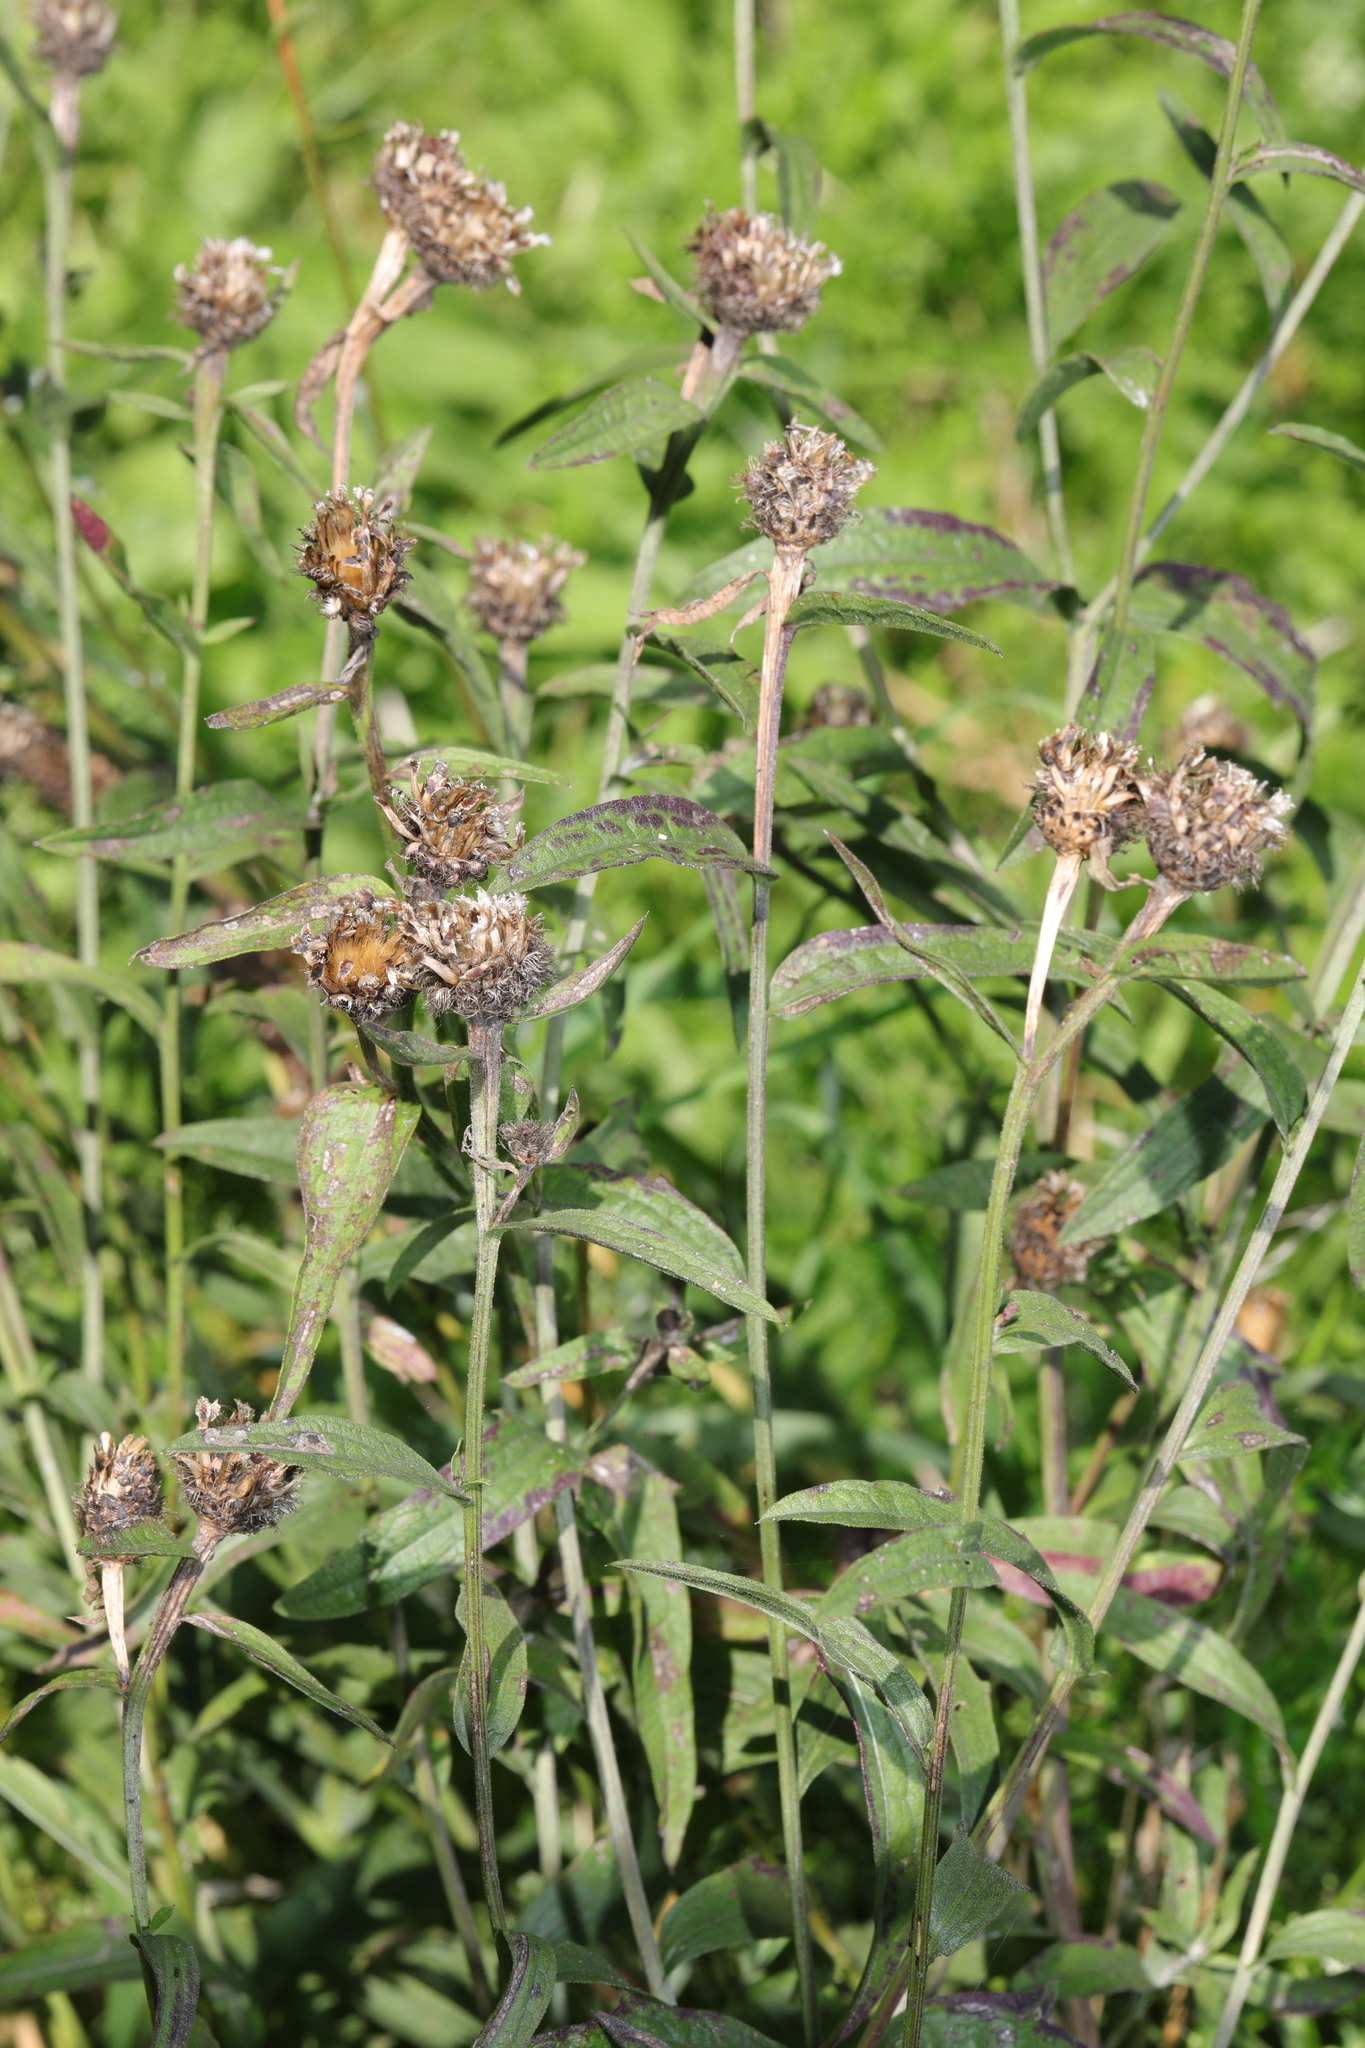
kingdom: Plantae
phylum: Tracheophyta
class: Magnoliopsida
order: Asterales
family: Asteraceae
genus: Centaurea
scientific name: Centaurea nigra
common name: Lesser knapweed
